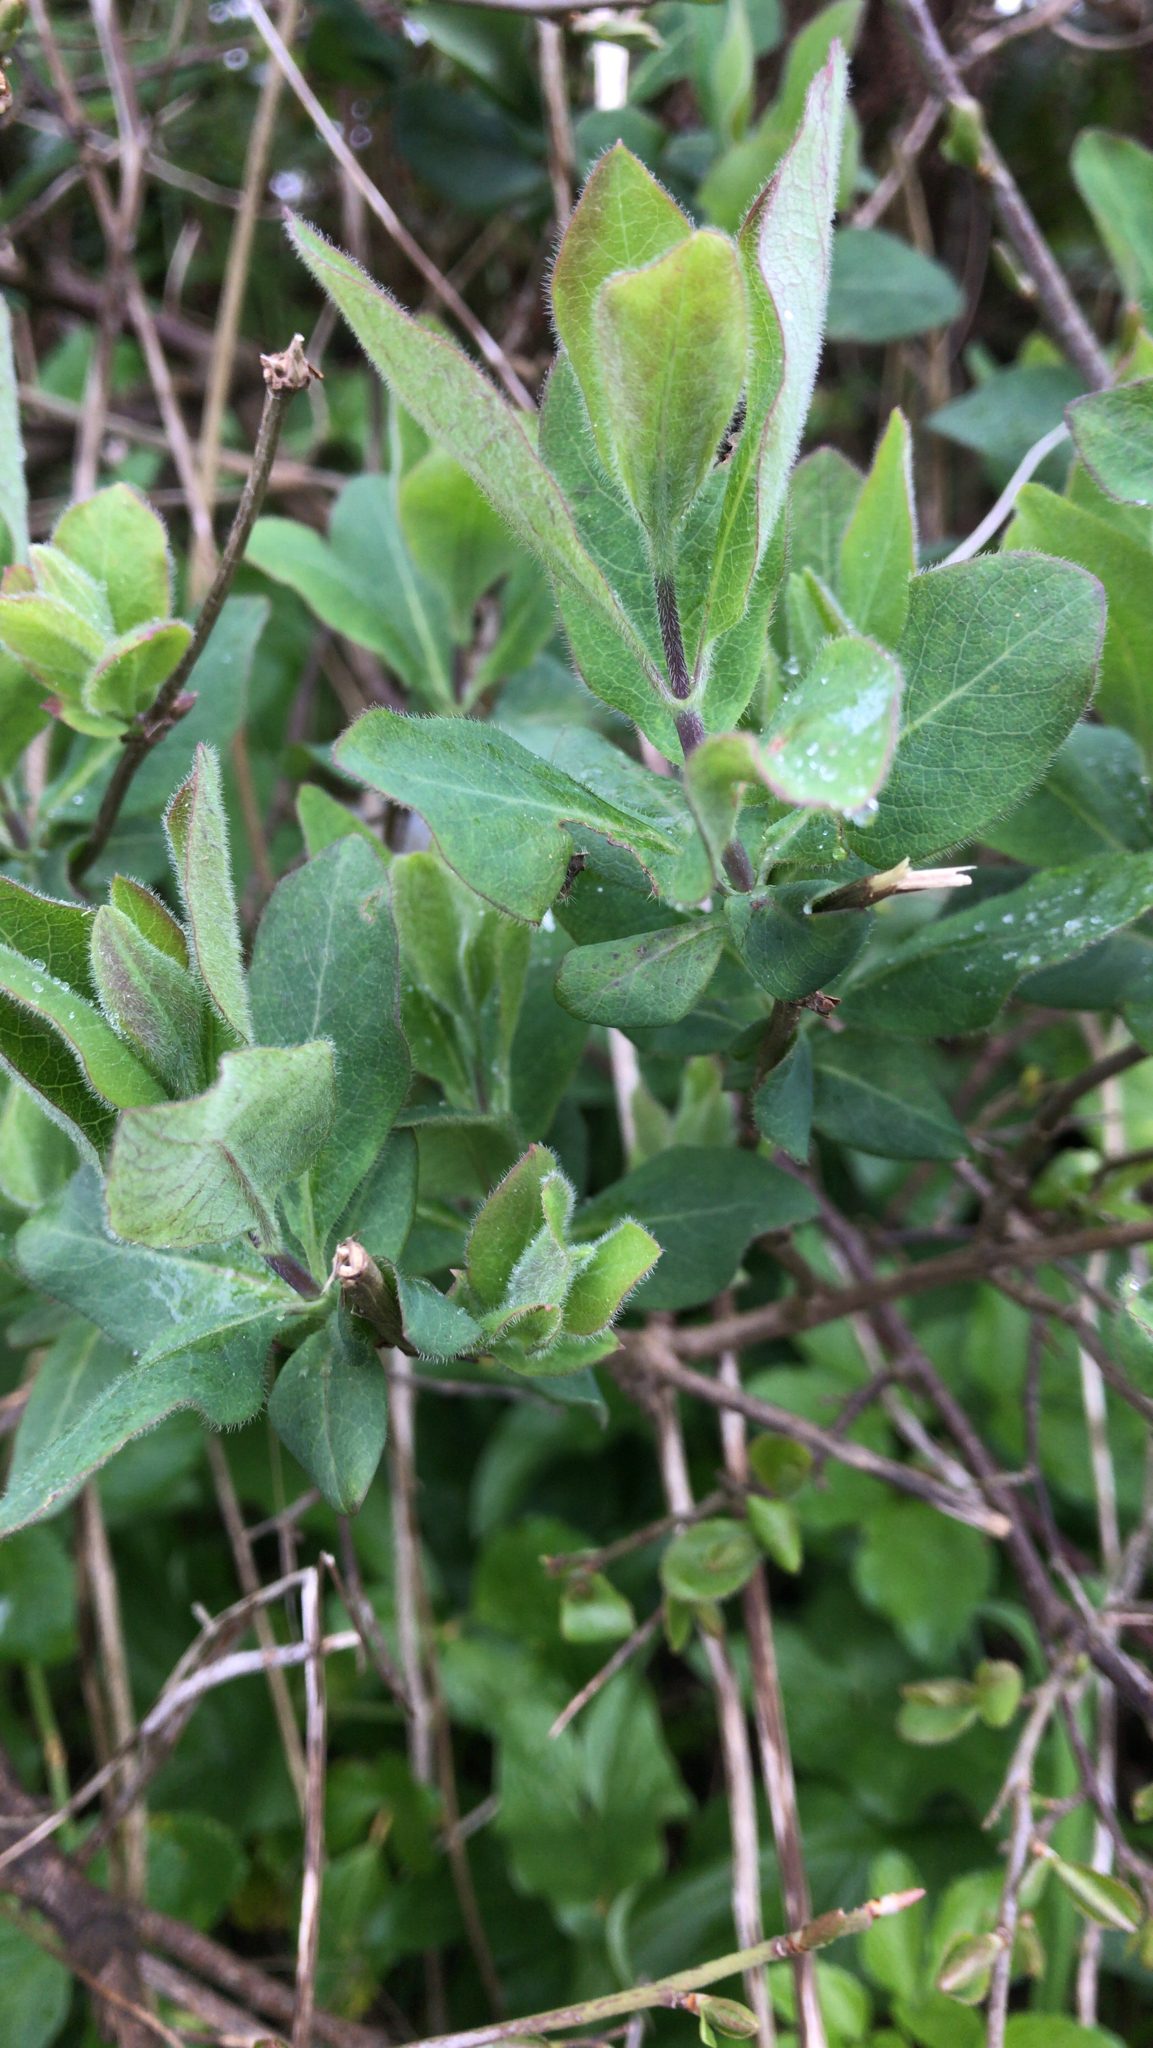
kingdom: Plantae
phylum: Tracheophyta
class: Magnoliopsida
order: Dipsacales
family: Caprifoliaceae
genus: Lonicera
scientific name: Lonicera periclymenum
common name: European honeysuckle
